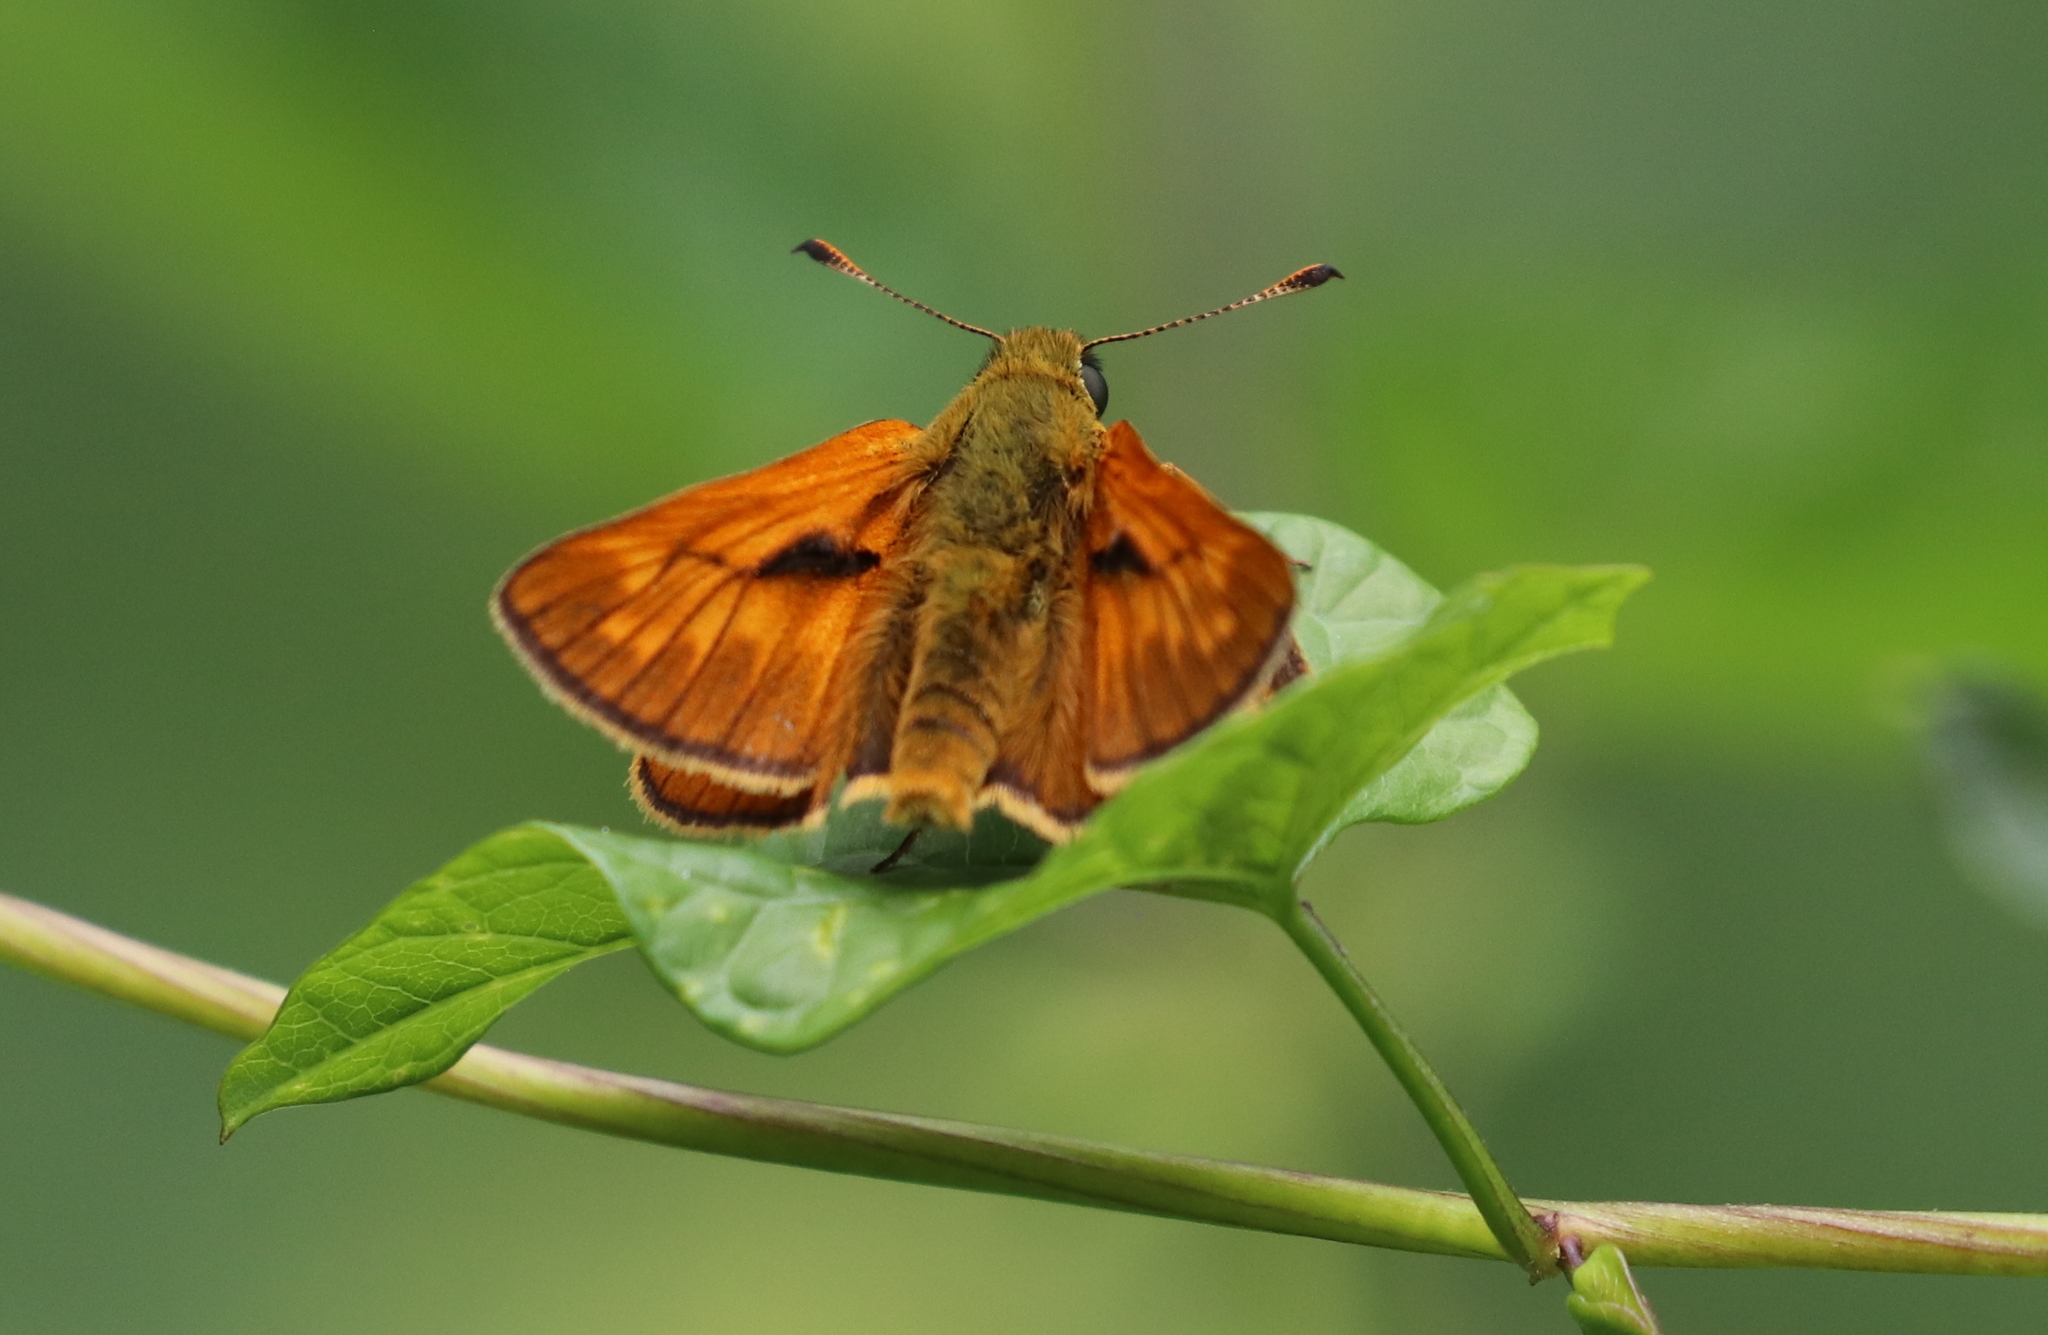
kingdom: Animalia
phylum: Arthropoda
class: Insecta
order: Lepidoptera
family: Hesperiidae
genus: Ochlodes
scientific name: Ochlodes venata
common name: Large skipper
